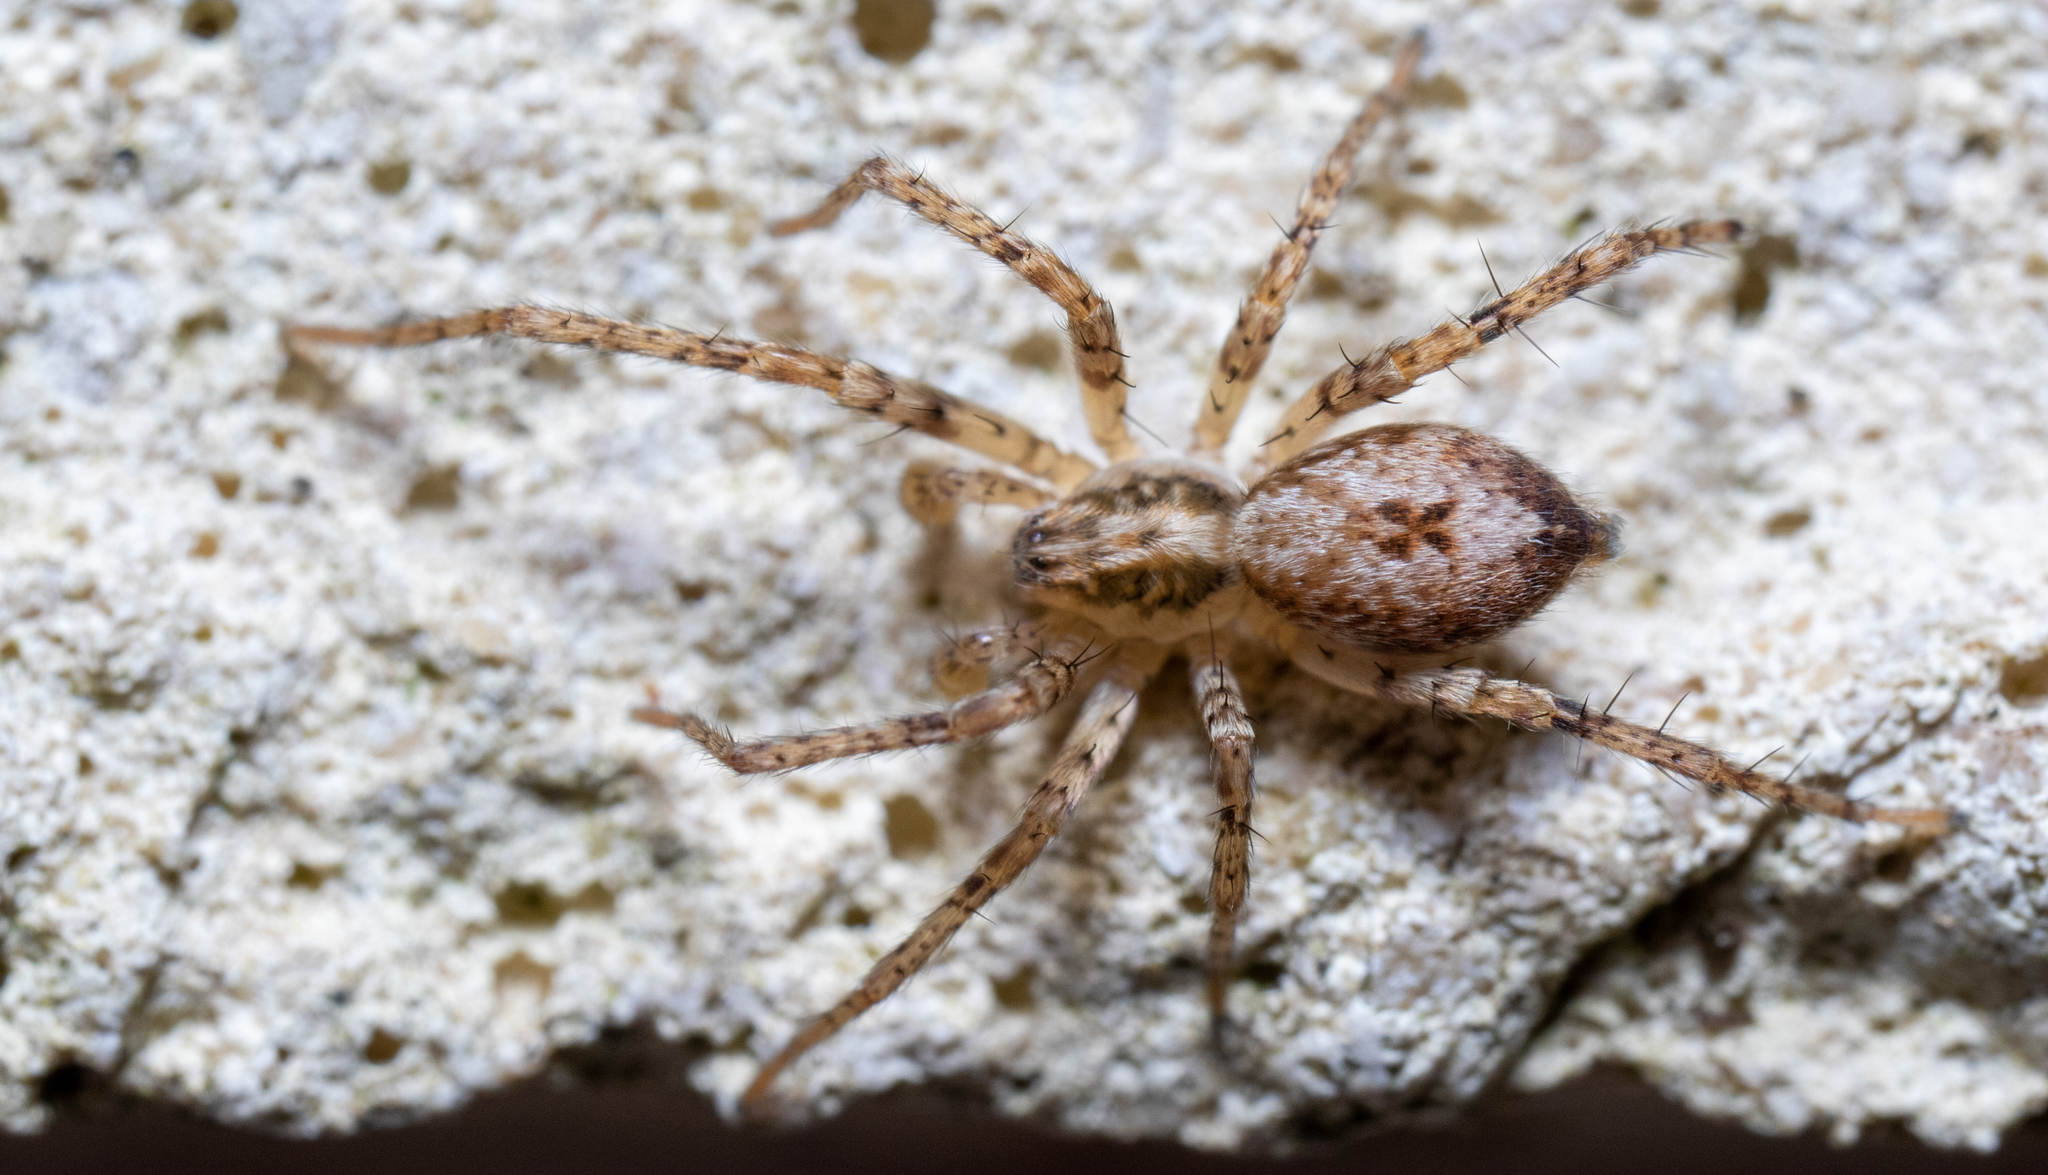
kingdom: Animalia
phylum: Arthropoda
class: Arachnida
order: Araneae
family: Anyphaenidae
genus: Anyphaena
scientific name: Anyphaena accentuata
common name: Buzzing spider
